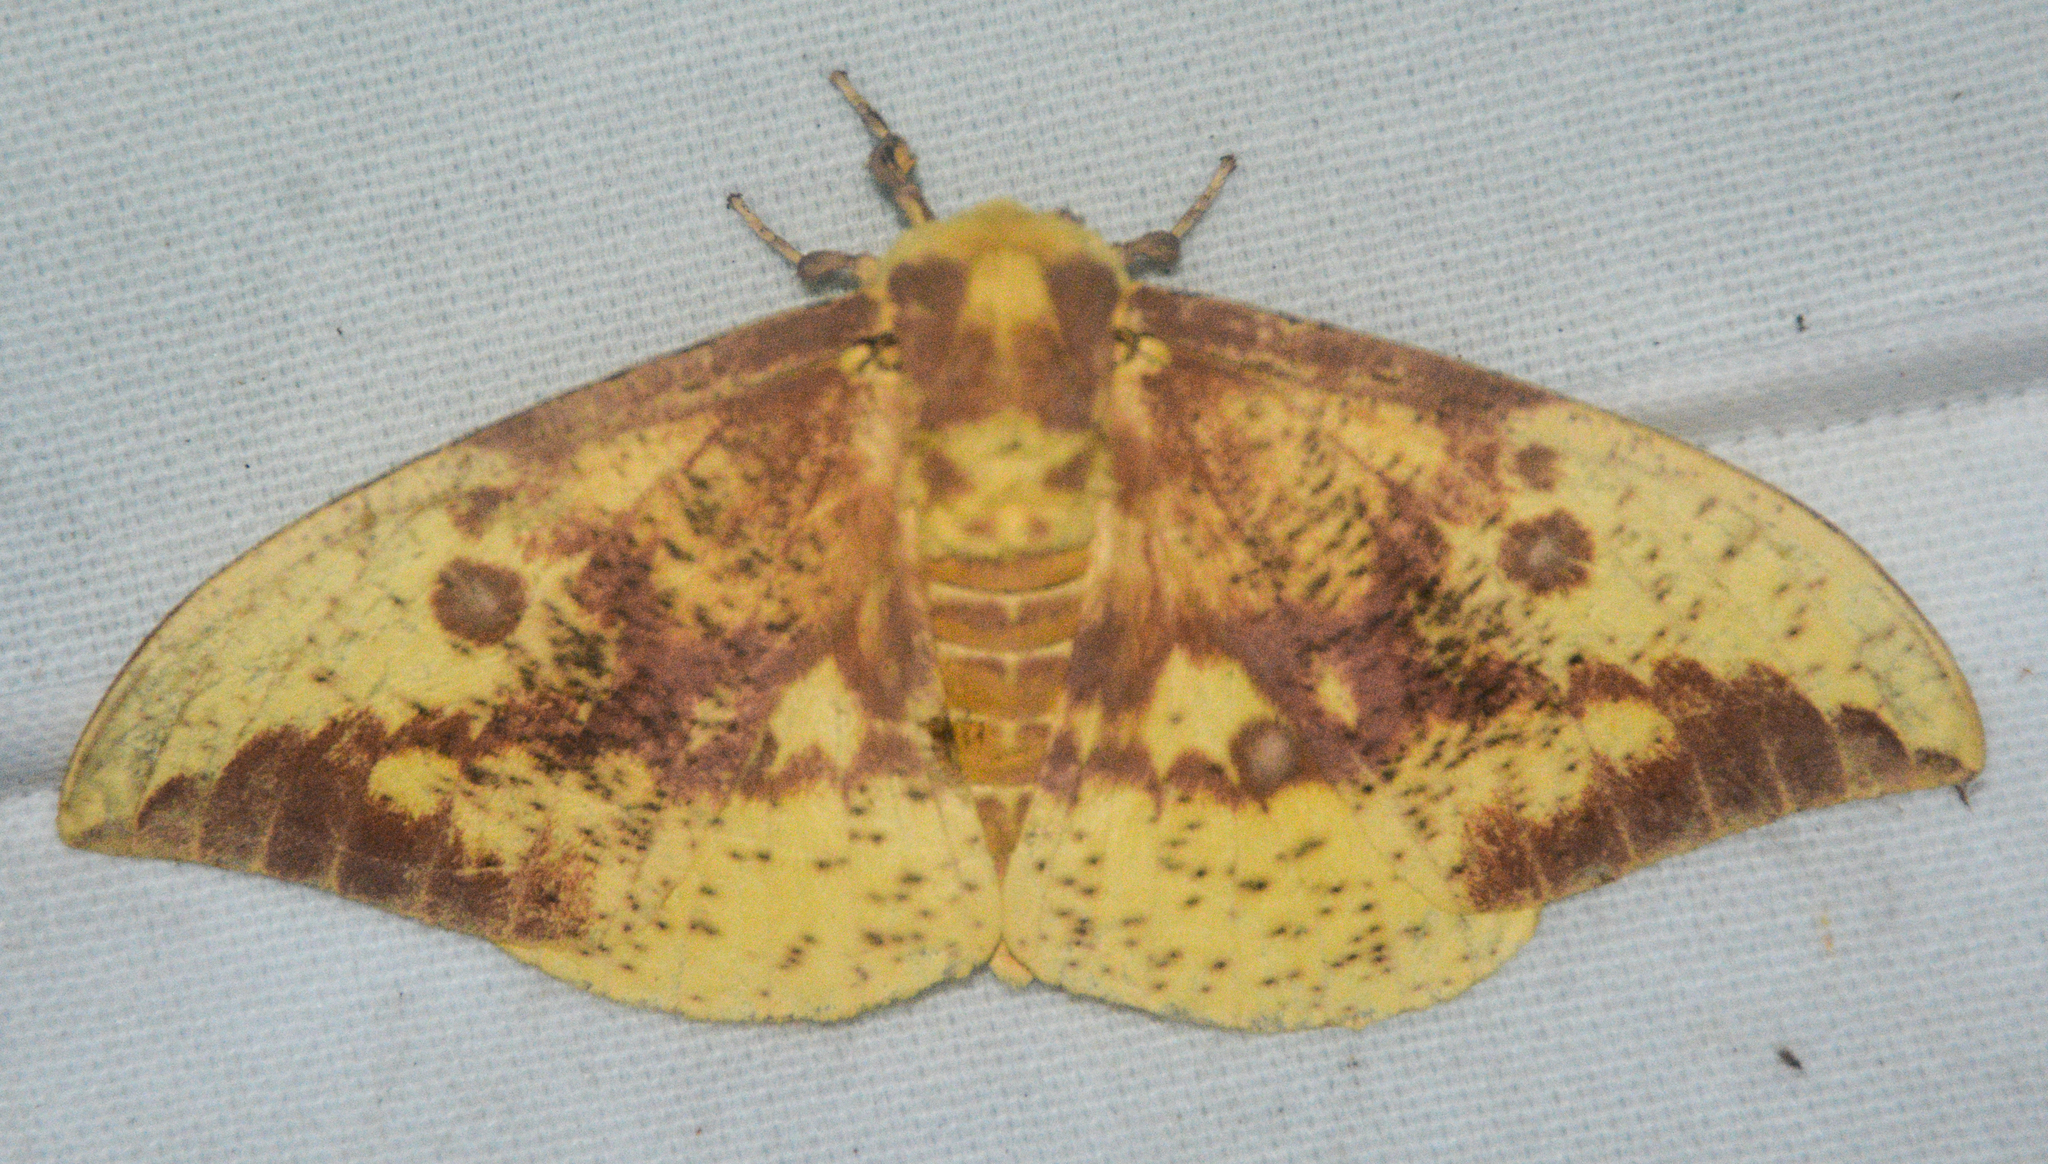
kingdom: Animalia
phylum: Arthropoda
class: Insecta
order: Lepidoptera
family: Saturniidae
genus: Eacles
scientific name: Eacles imperialis
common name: Imperial moth
